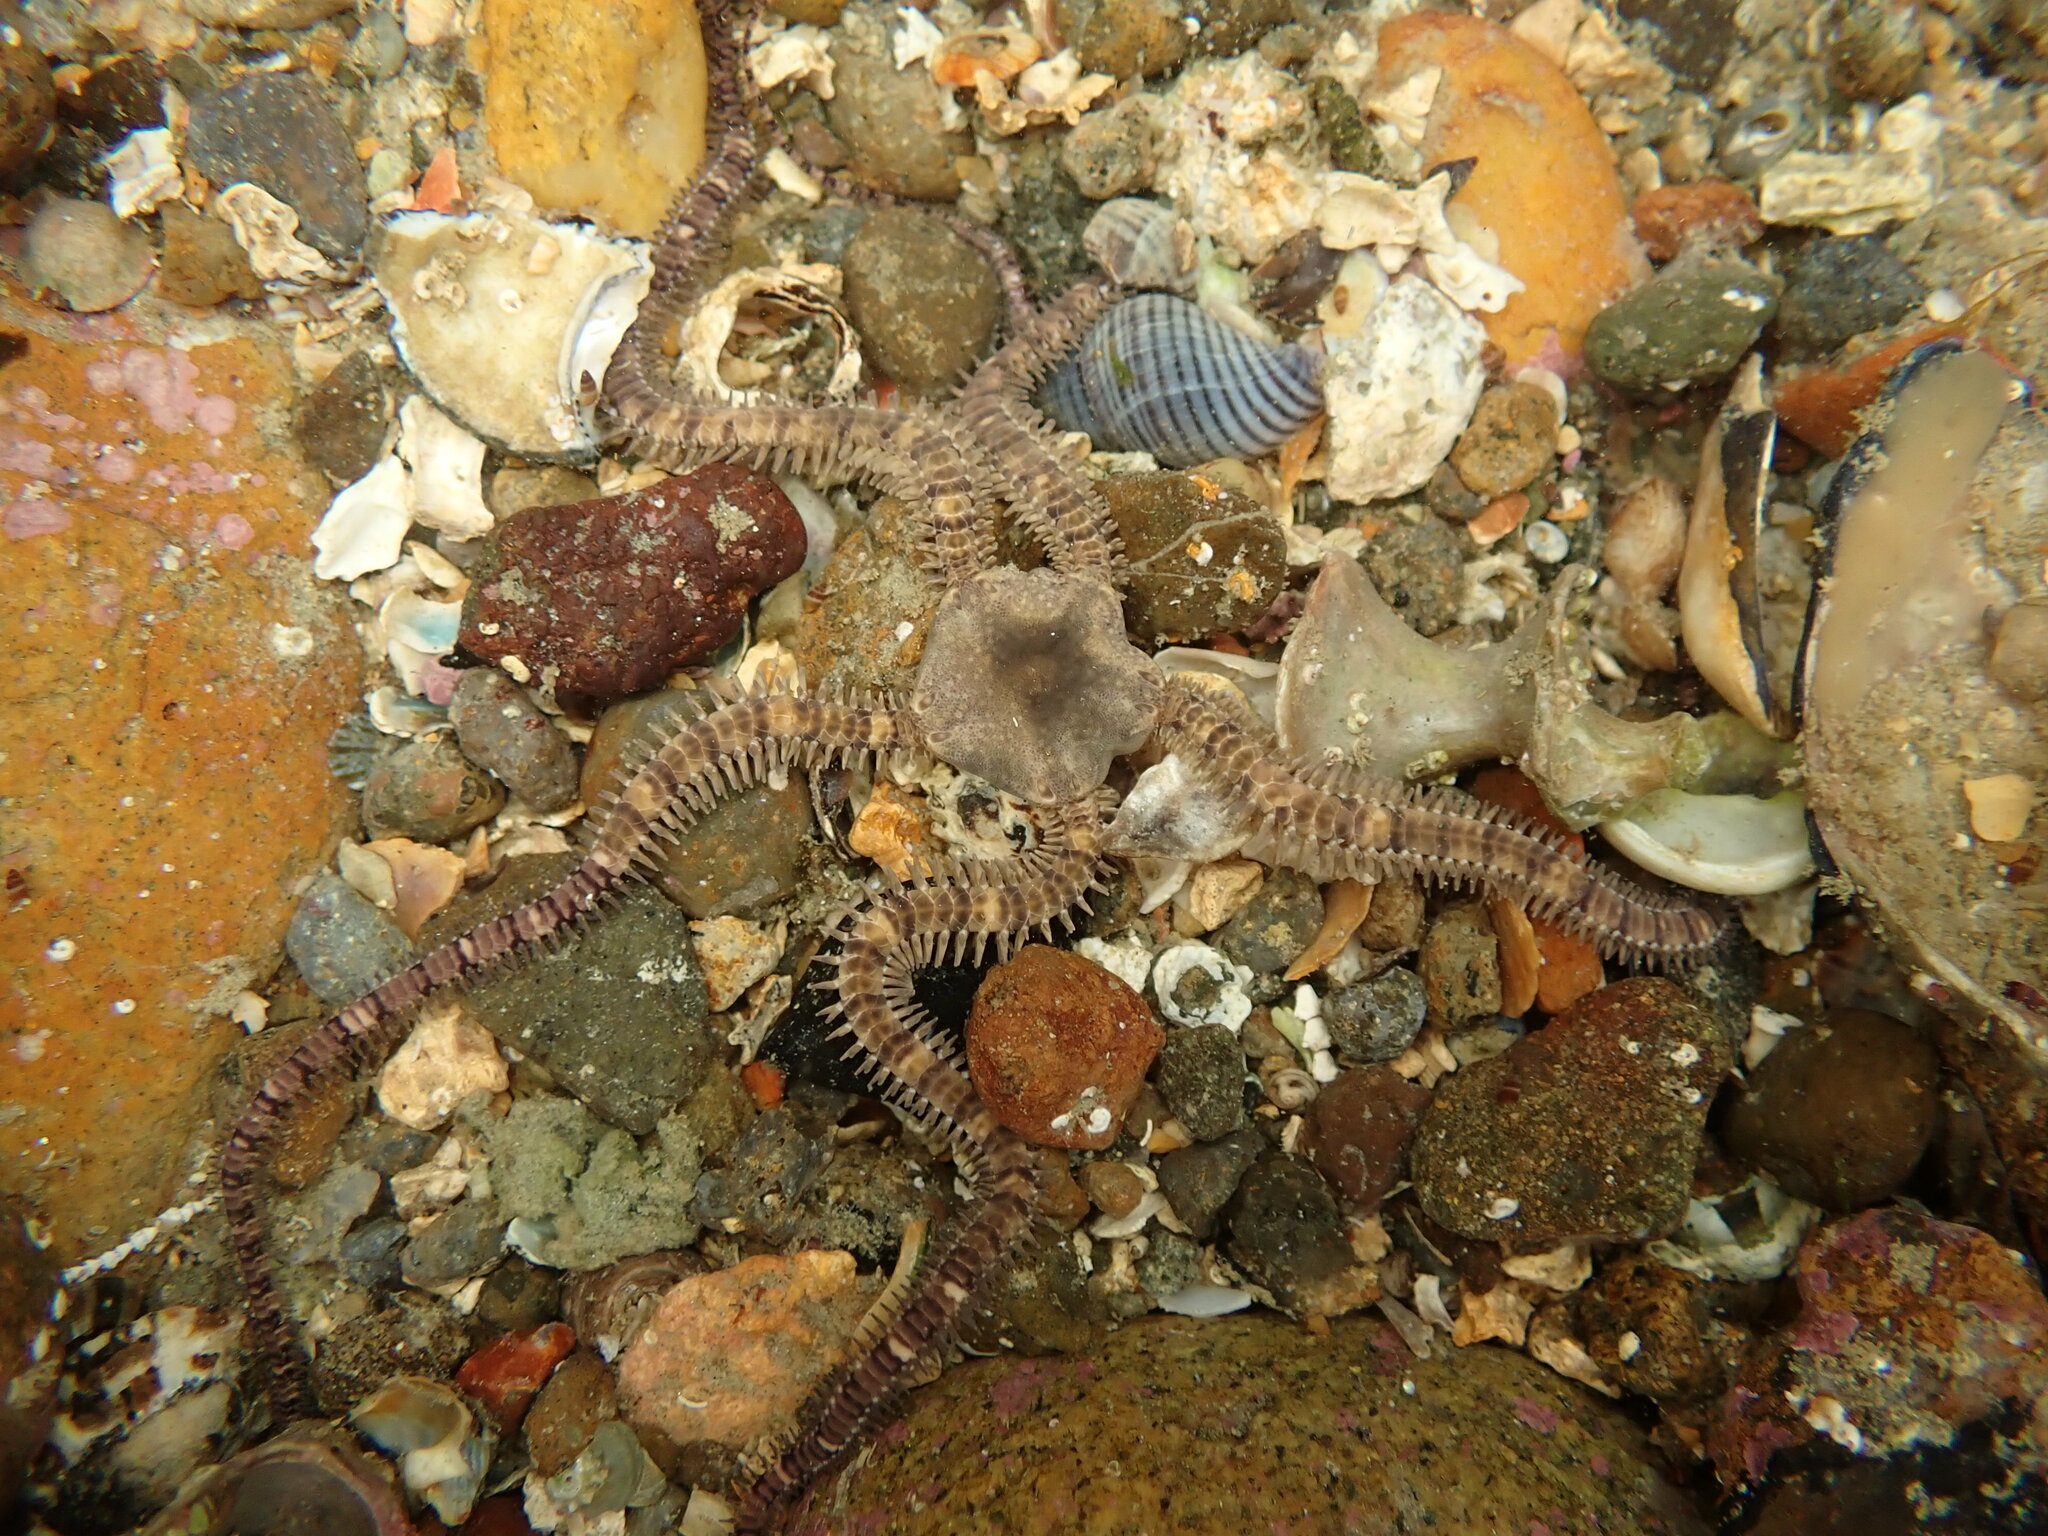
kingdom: Animalia
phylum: Echinodermata
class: Ophiuroidea
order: Amphilepidida
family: Ophionereididae
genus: Ophionereis
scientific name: Ophionereis fasciata
